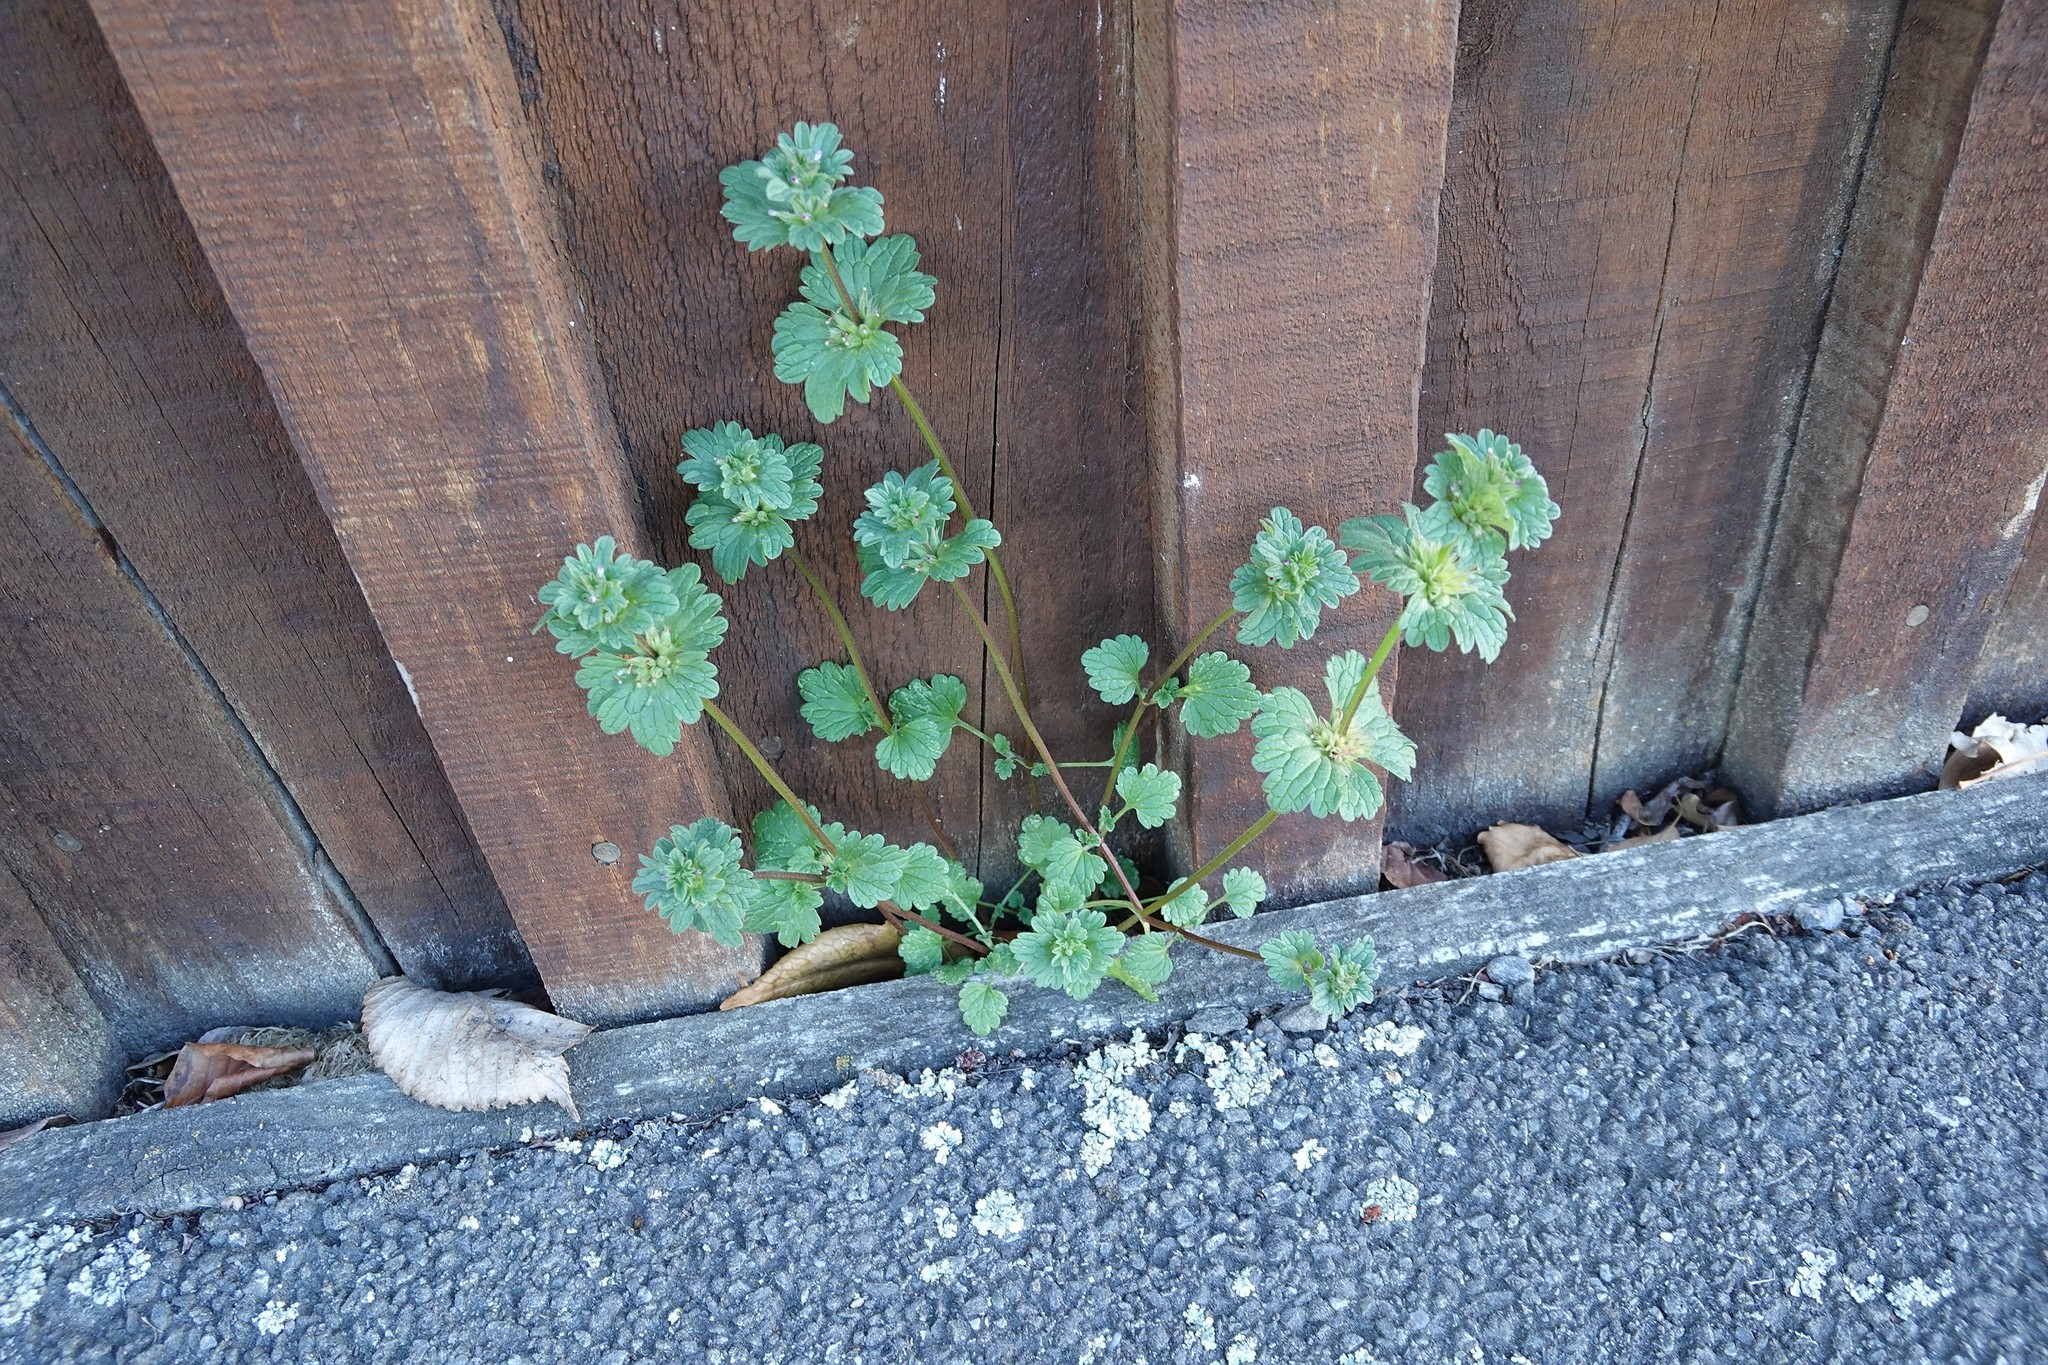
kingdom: Plantae
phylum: Tracheophyta
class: Magnoliopsida
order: Lamiales
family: Lamiaceae
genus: Lamium
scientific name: Lamium amplexicaule
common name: Henbit dead-nettle
